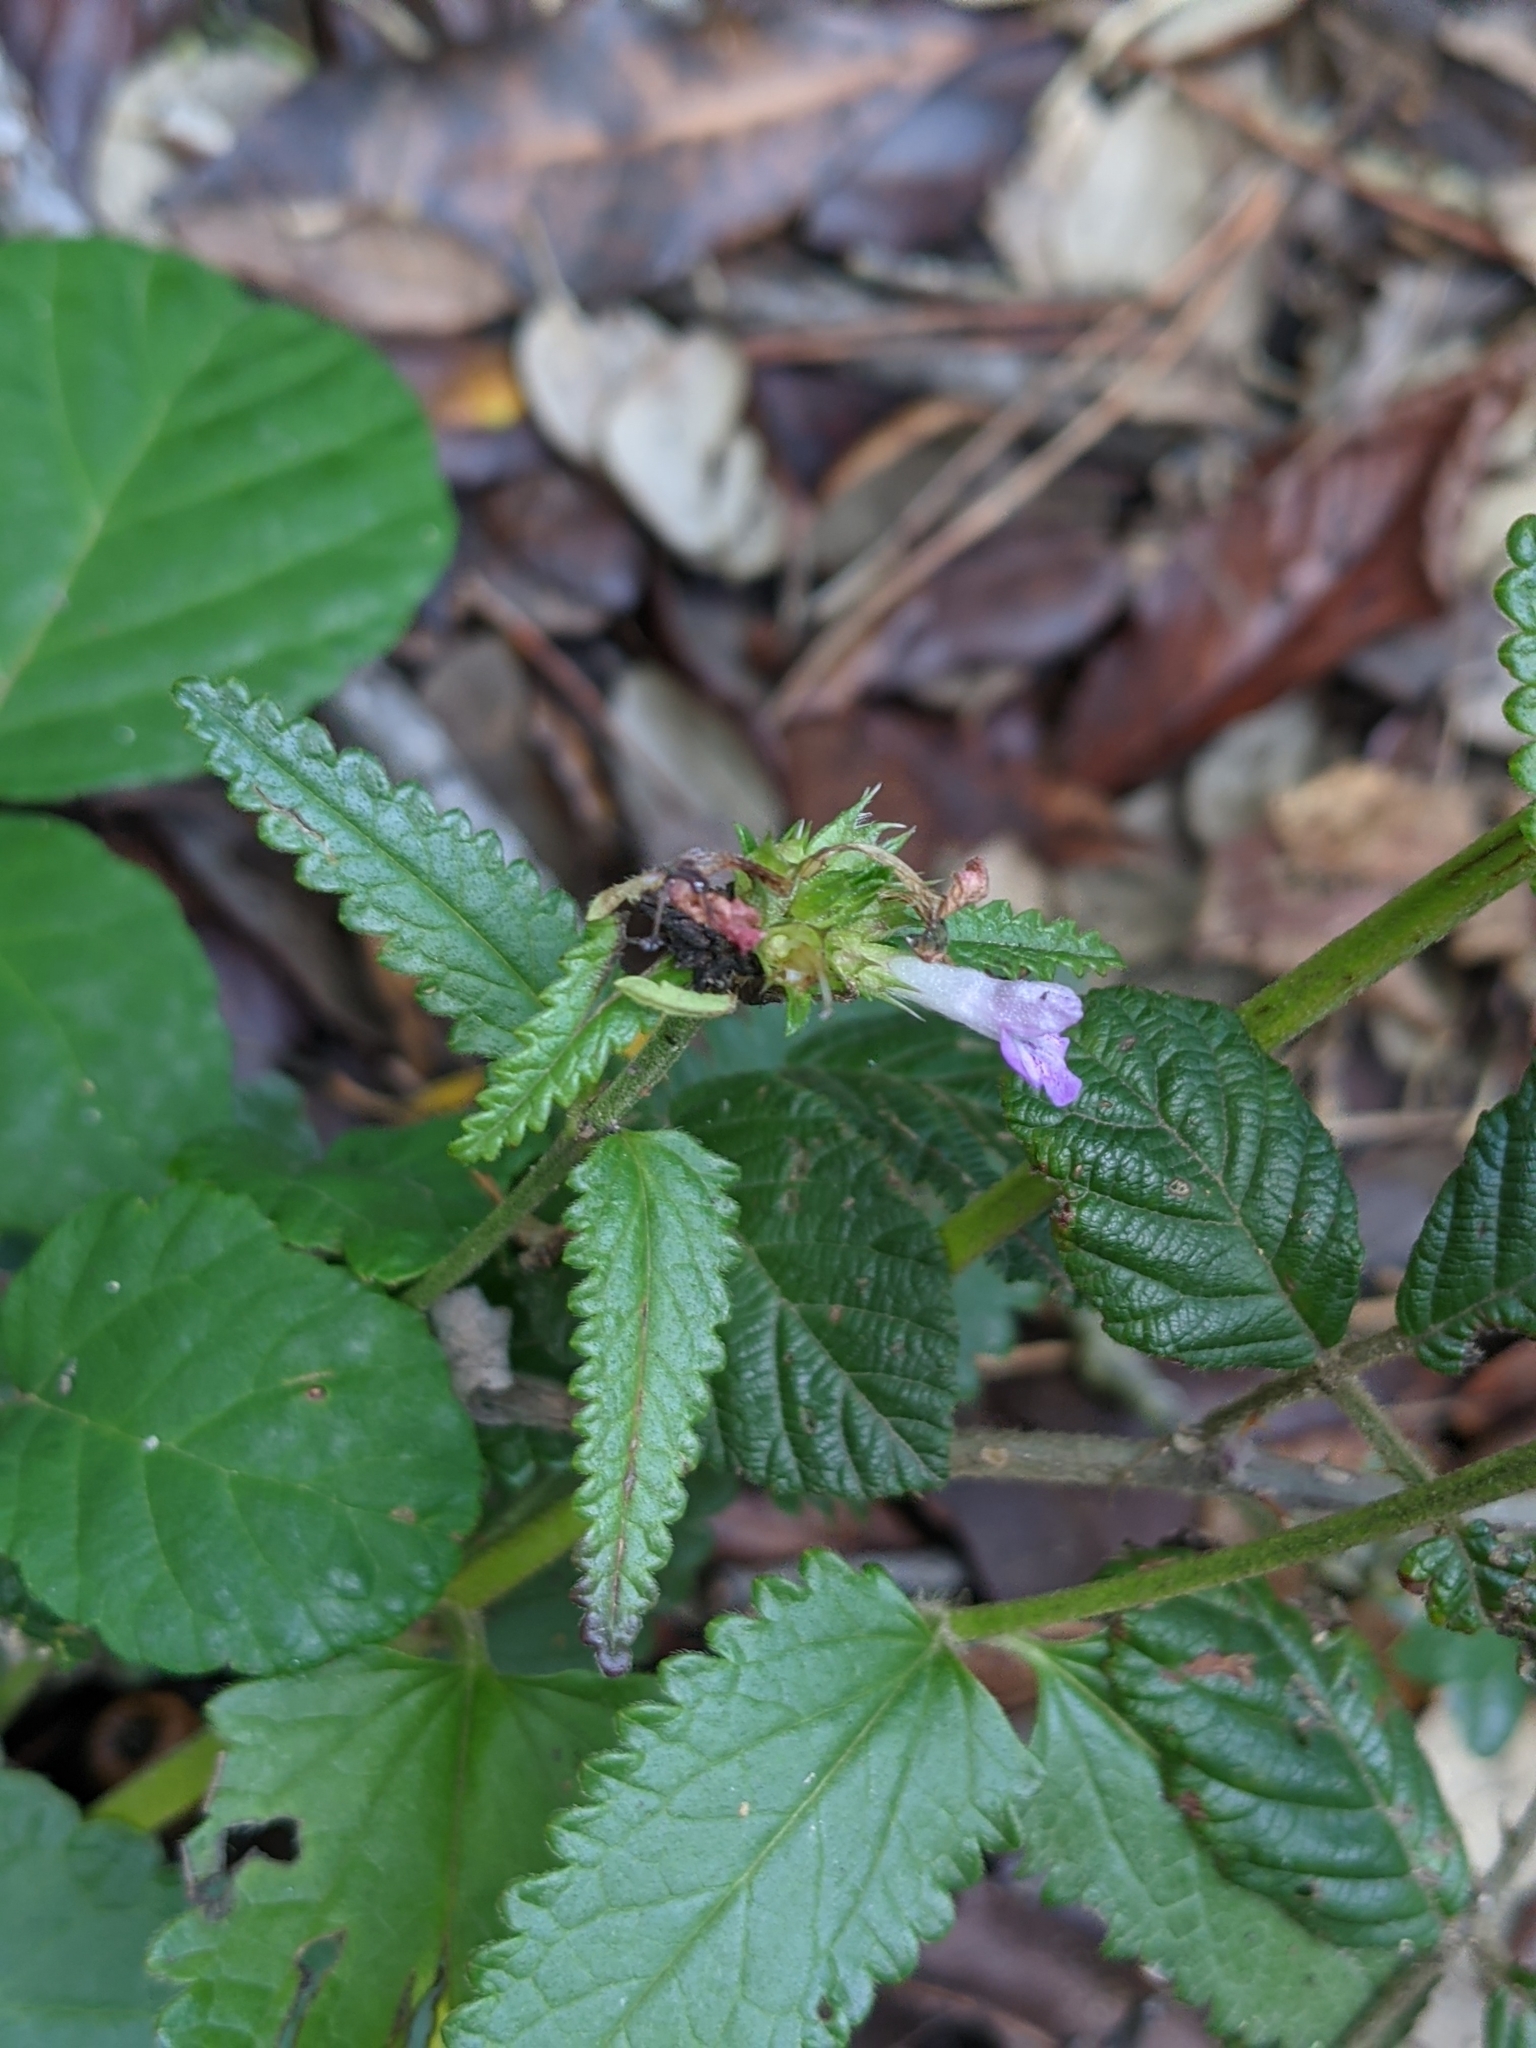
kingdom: Plantae
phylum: Tracheophyta
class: Magnoliopsida
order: Lamiales
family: Lamiaceae
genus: Betonica
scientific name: Betonica officinalis
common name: Bishop's-wort
